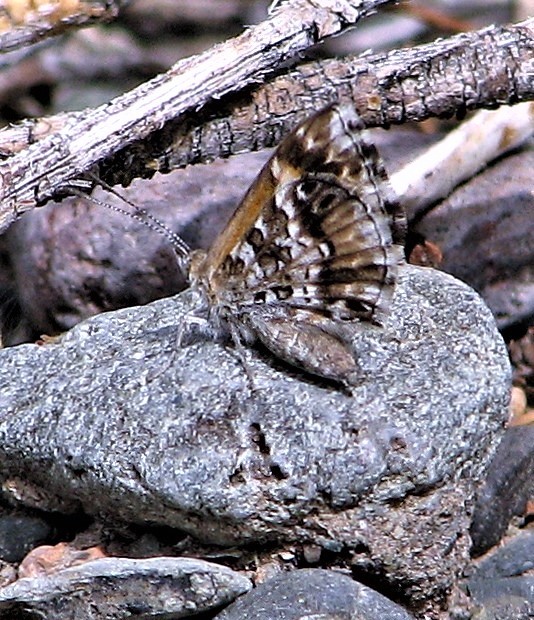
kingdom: Animalia
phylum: Arthropoda
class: Insecta
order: Lepidoptera
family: Lycaenidae
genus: Aricoris
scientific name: Aricoris signata
